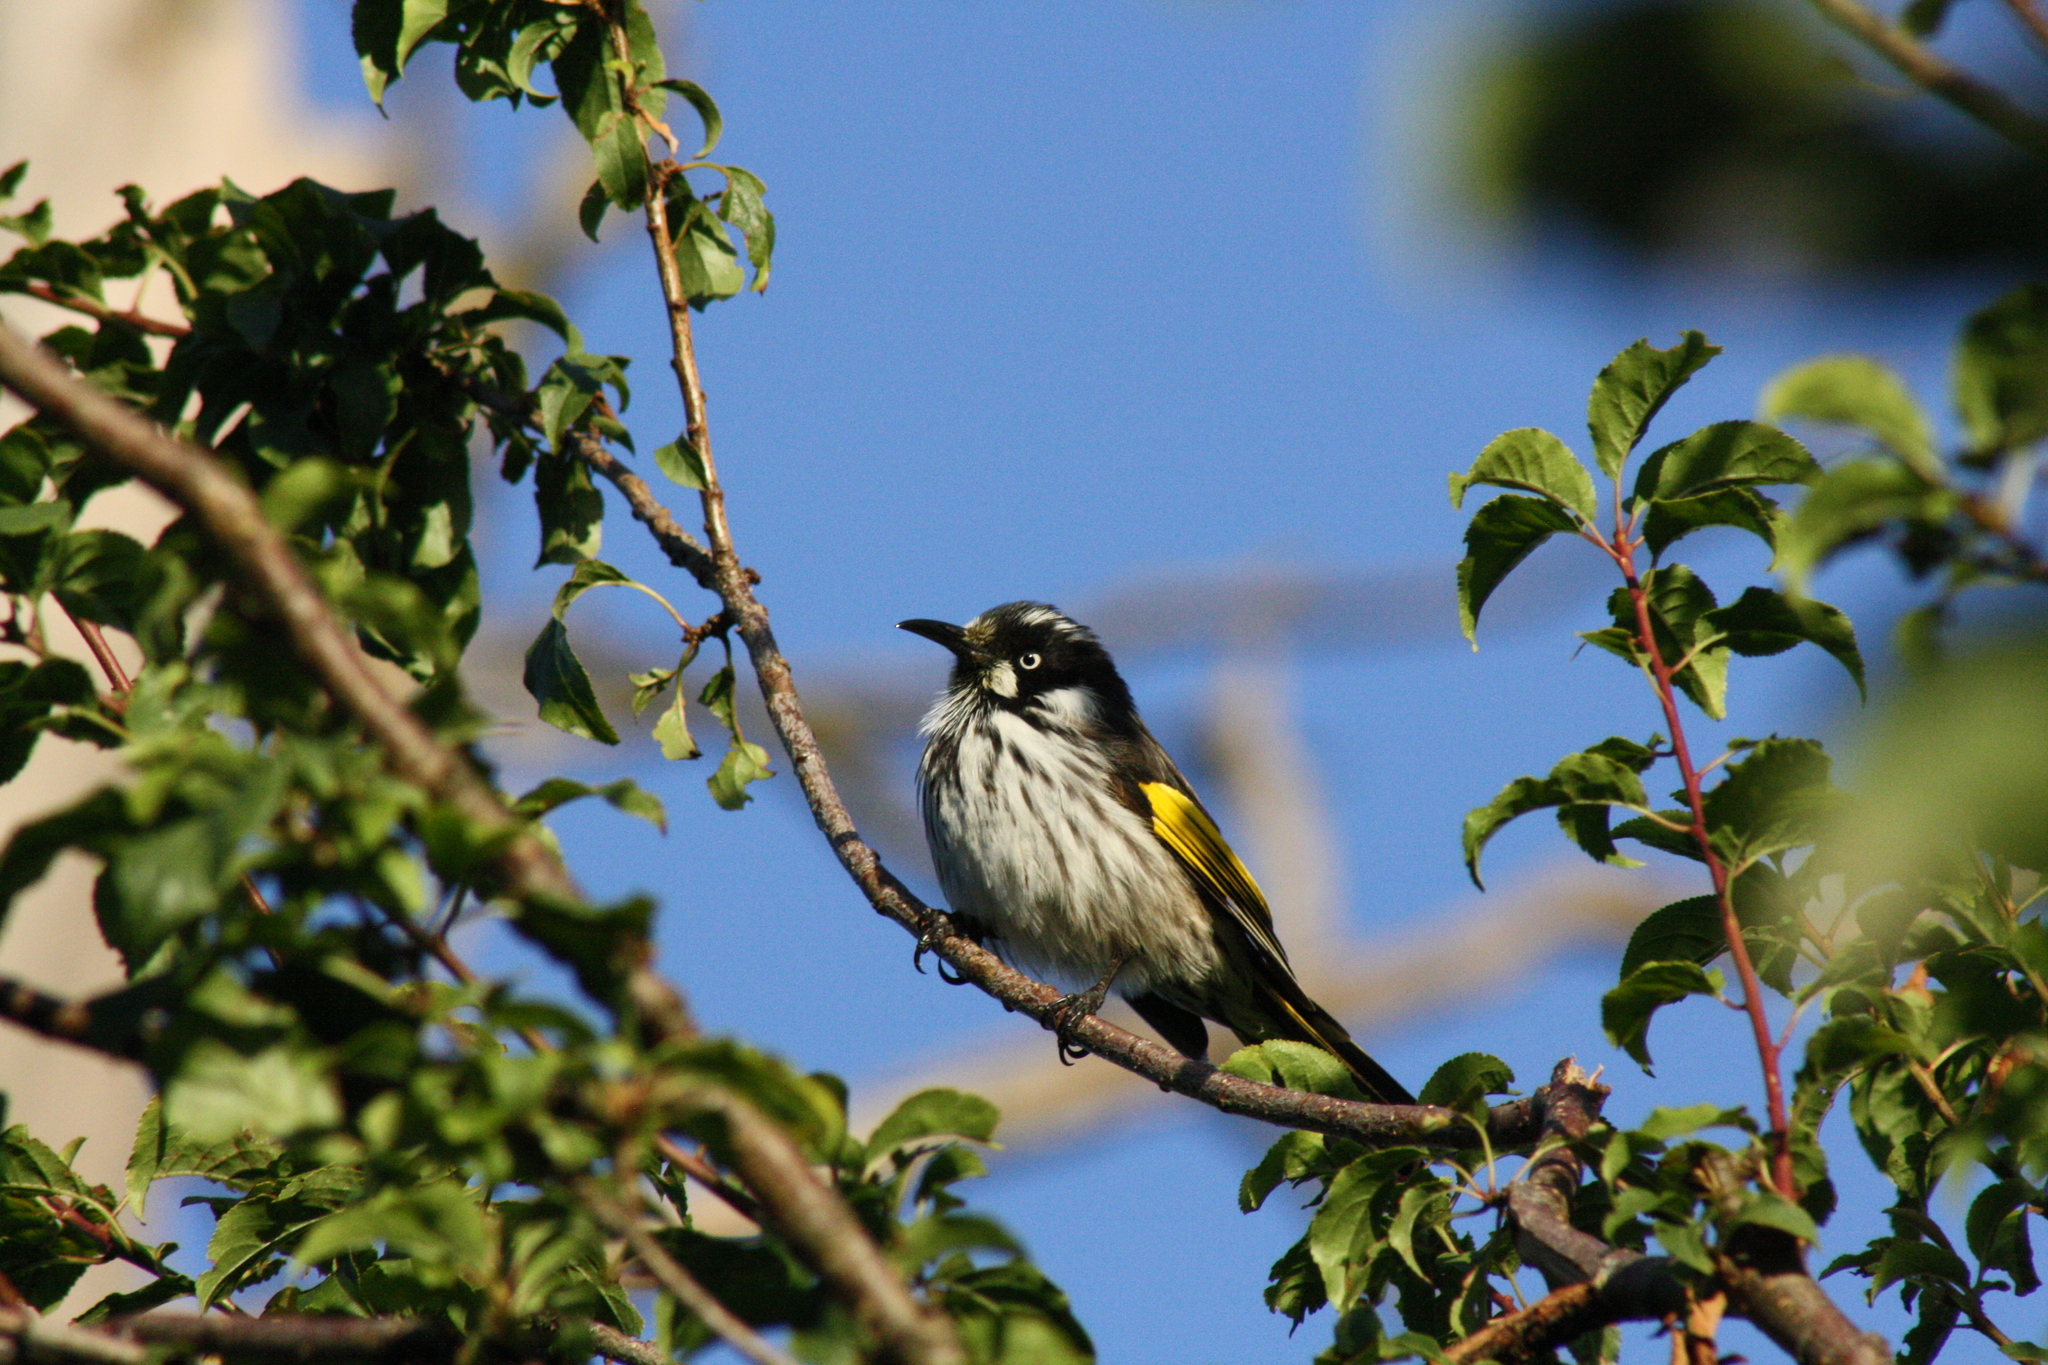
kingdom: Animalia
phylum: Chordata
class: Aves
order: Passeriformes
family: Meliphagidae
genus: Phylidonyris
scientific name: Phylidonyris novaehollandiae
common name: New holland honeyeater
